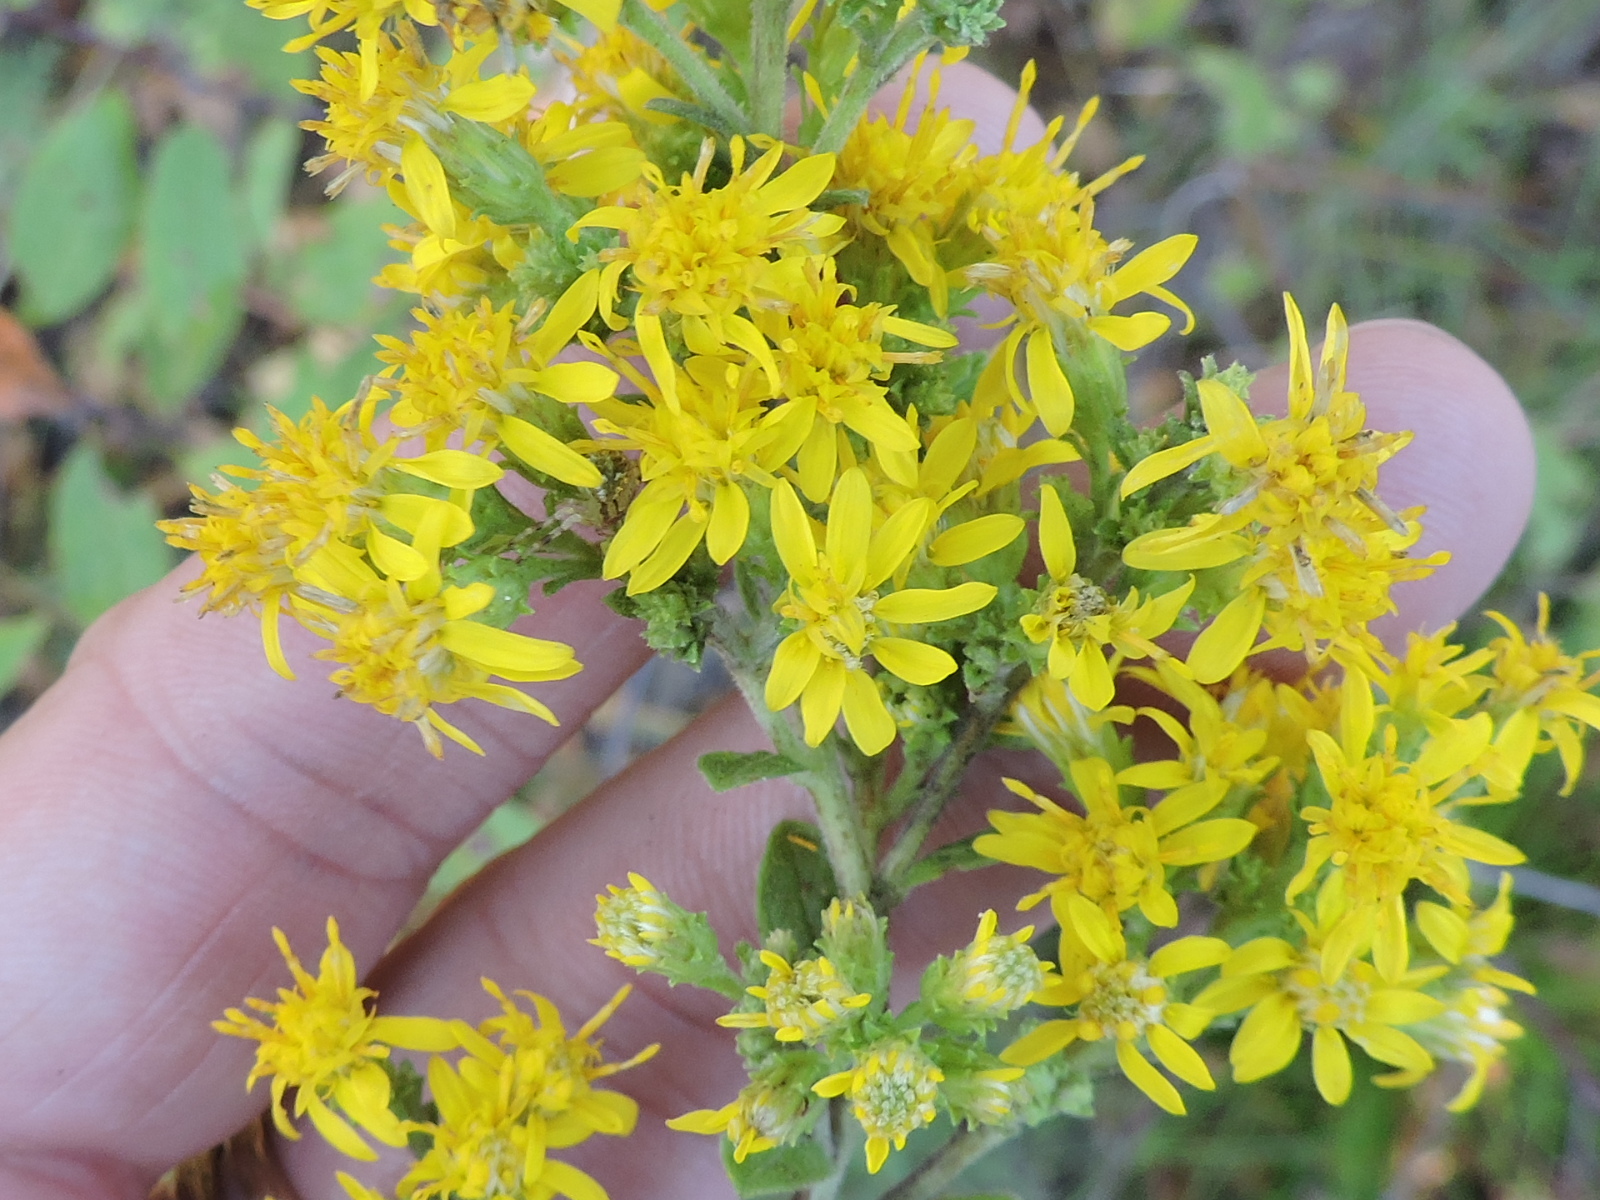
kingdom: Plantae
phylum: Tracheophyta
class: Magnoliopsida
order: Asterales
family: Asteraceae
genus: Solidago
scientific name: Solidago petiolaris
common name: Downy ragged goldenrod
